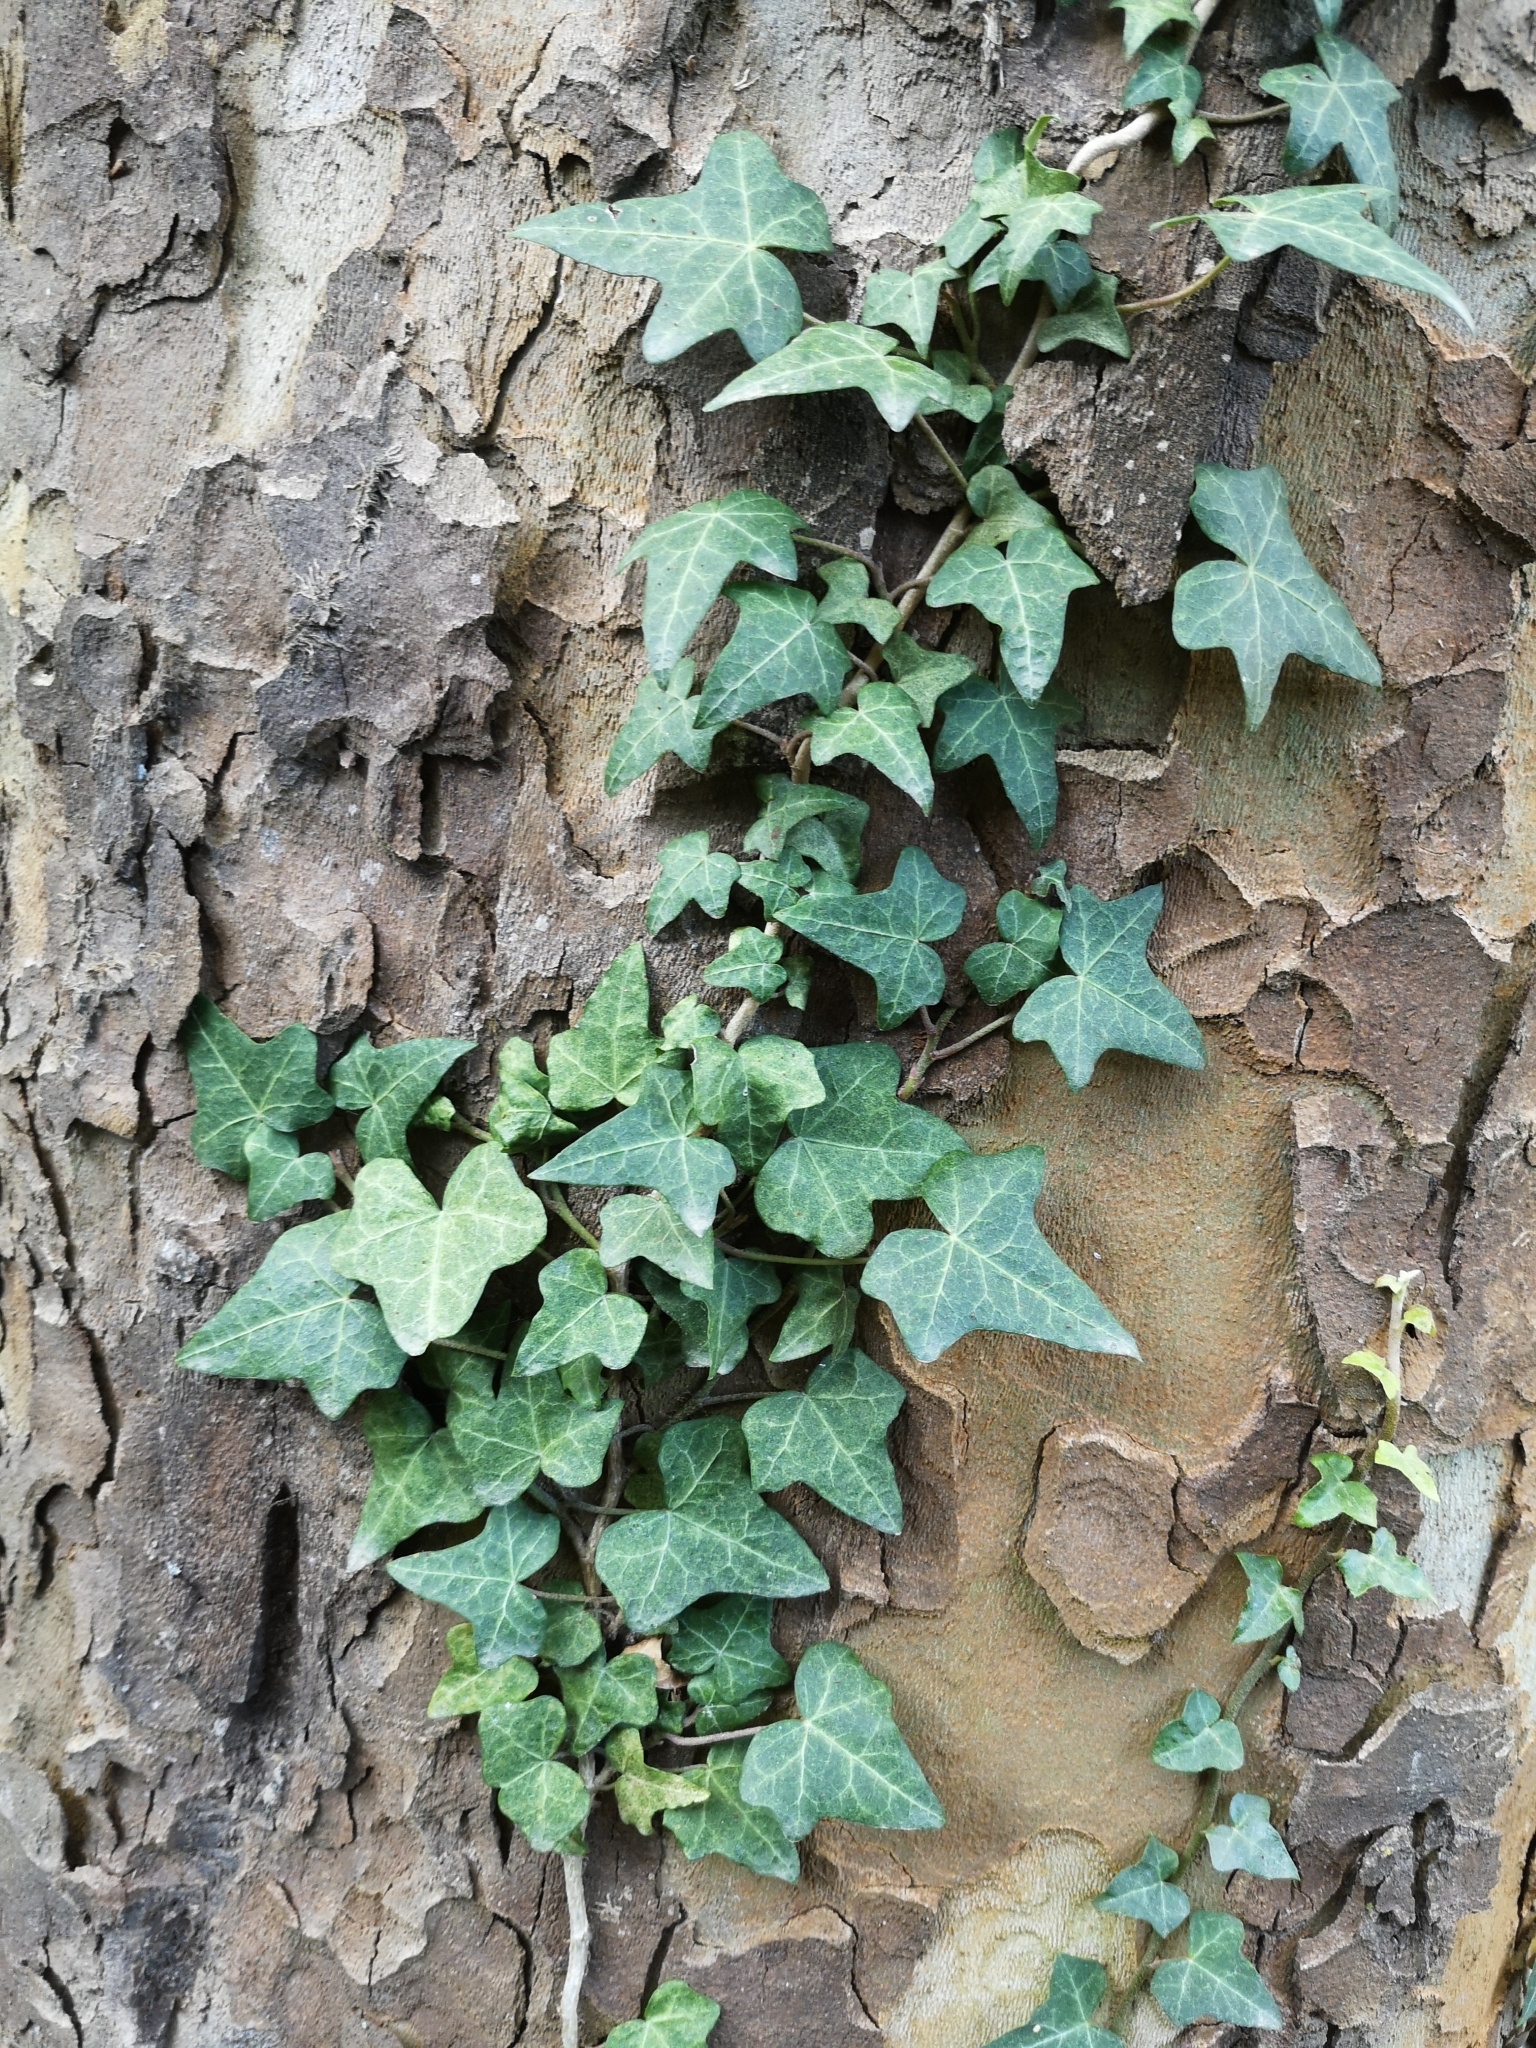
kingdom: Plantae
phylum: Tracheophyta
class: Magnoliopsida
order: Apiales
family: Araliaceae
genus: Hedera
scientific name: Hedera helix
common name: Ivy
